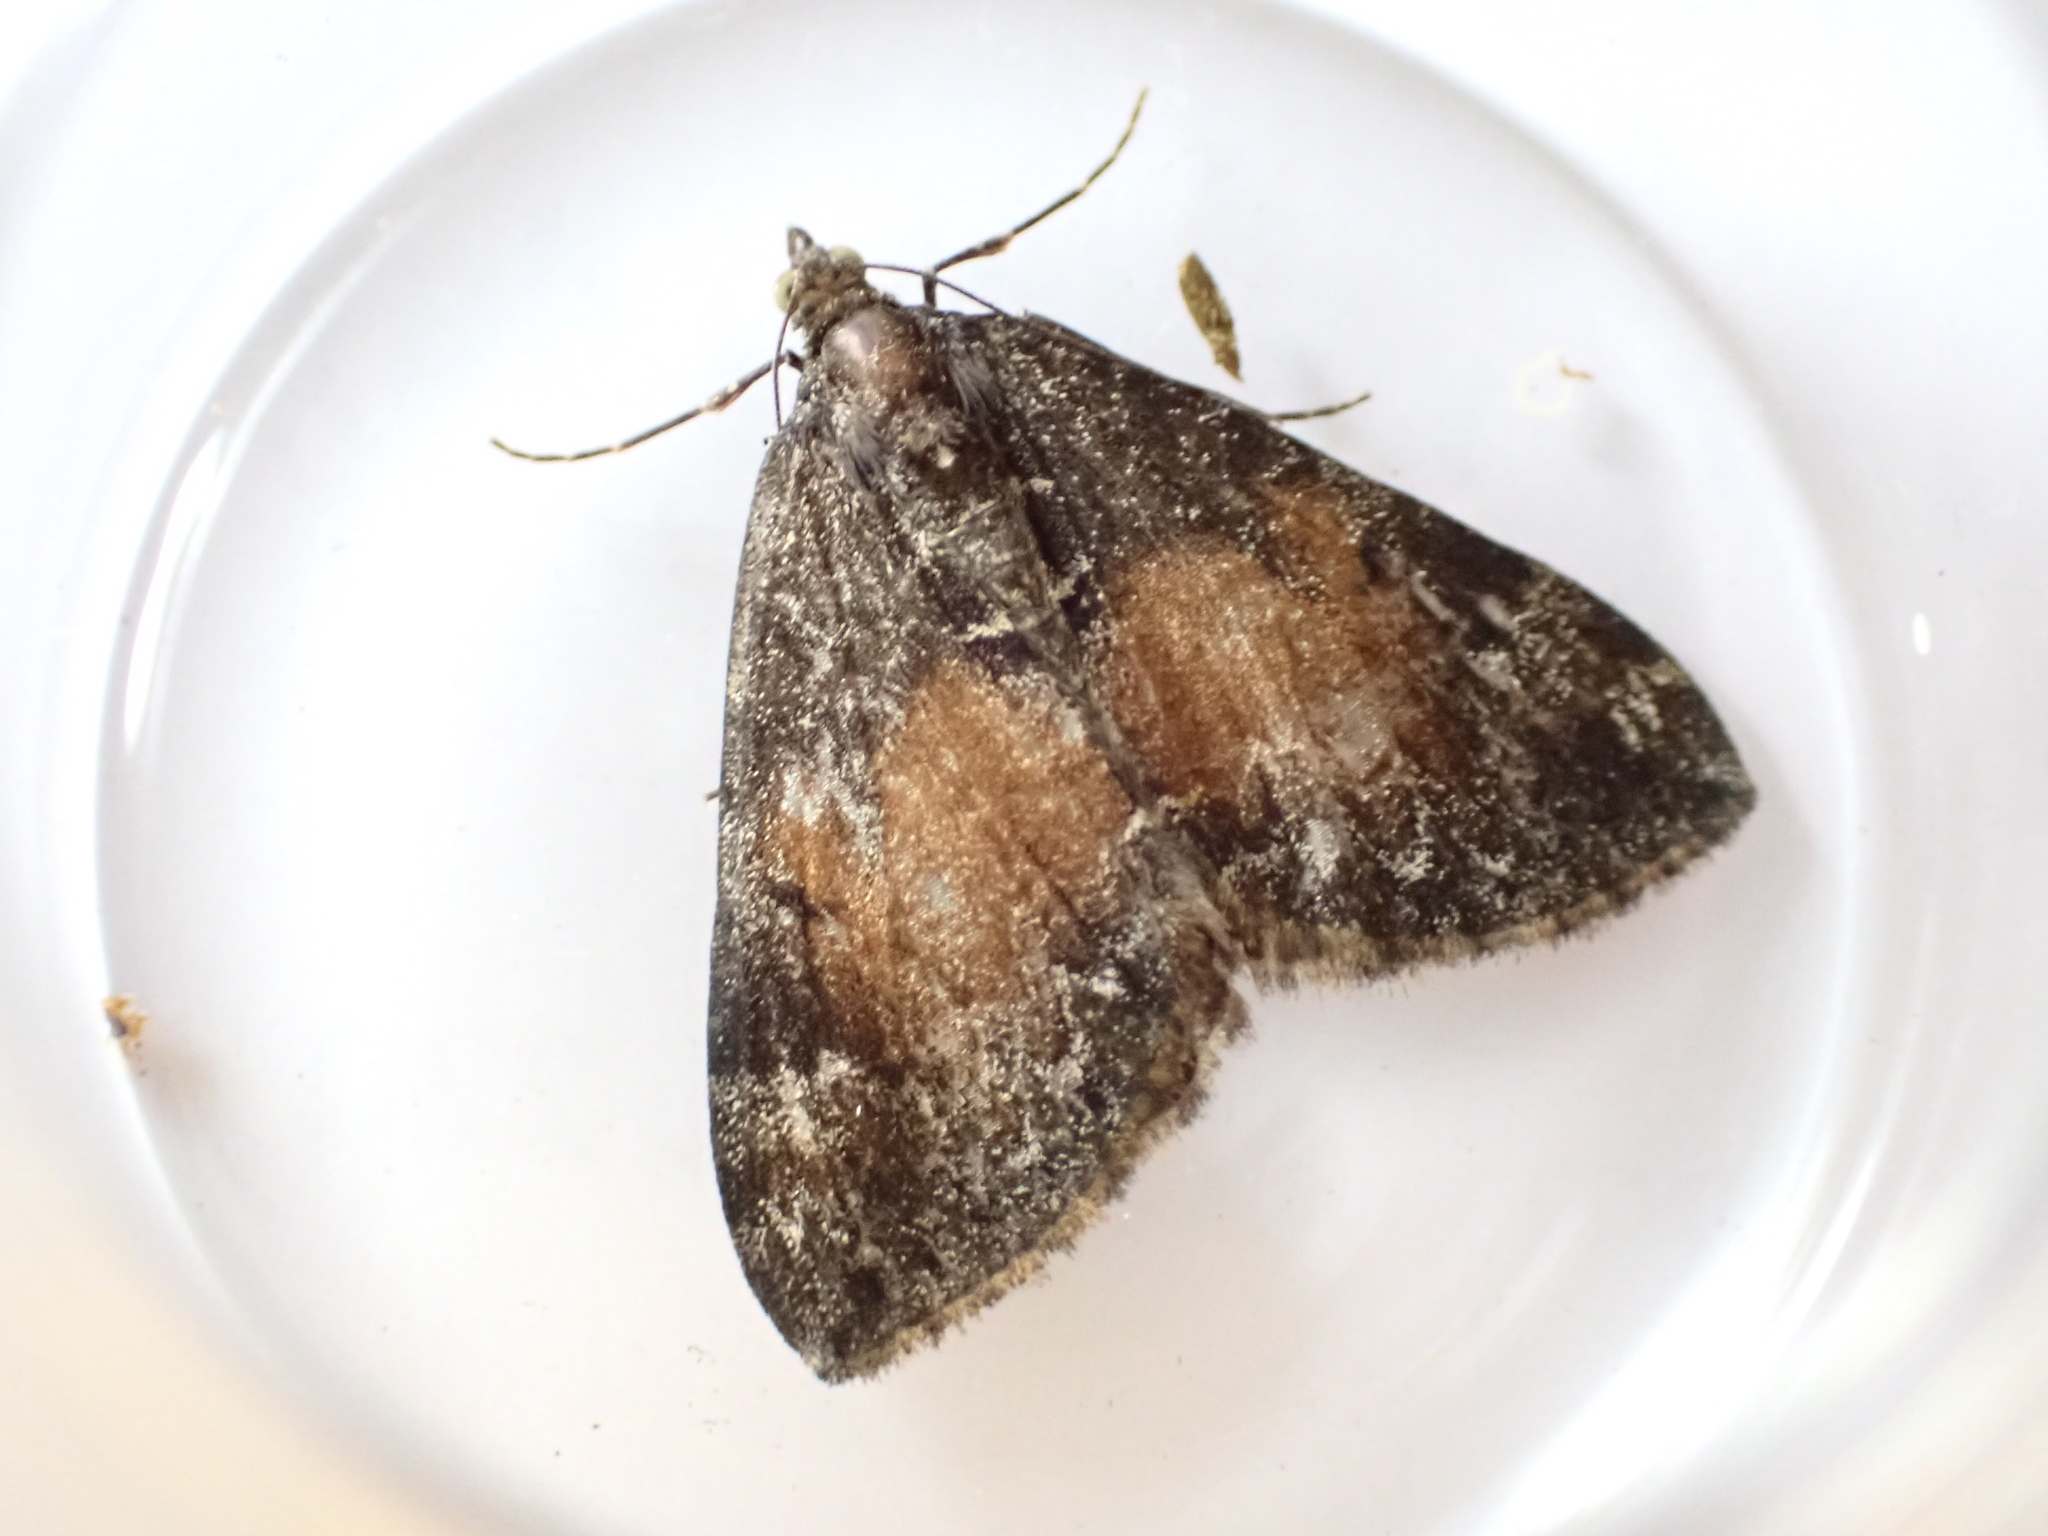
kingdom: Animalia
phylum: Arthropoda
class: Insecta
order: Lepidoptera
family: Geometridae
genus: Dysstroma
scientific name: Dysstroma truncata
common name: Common marbled carpet
